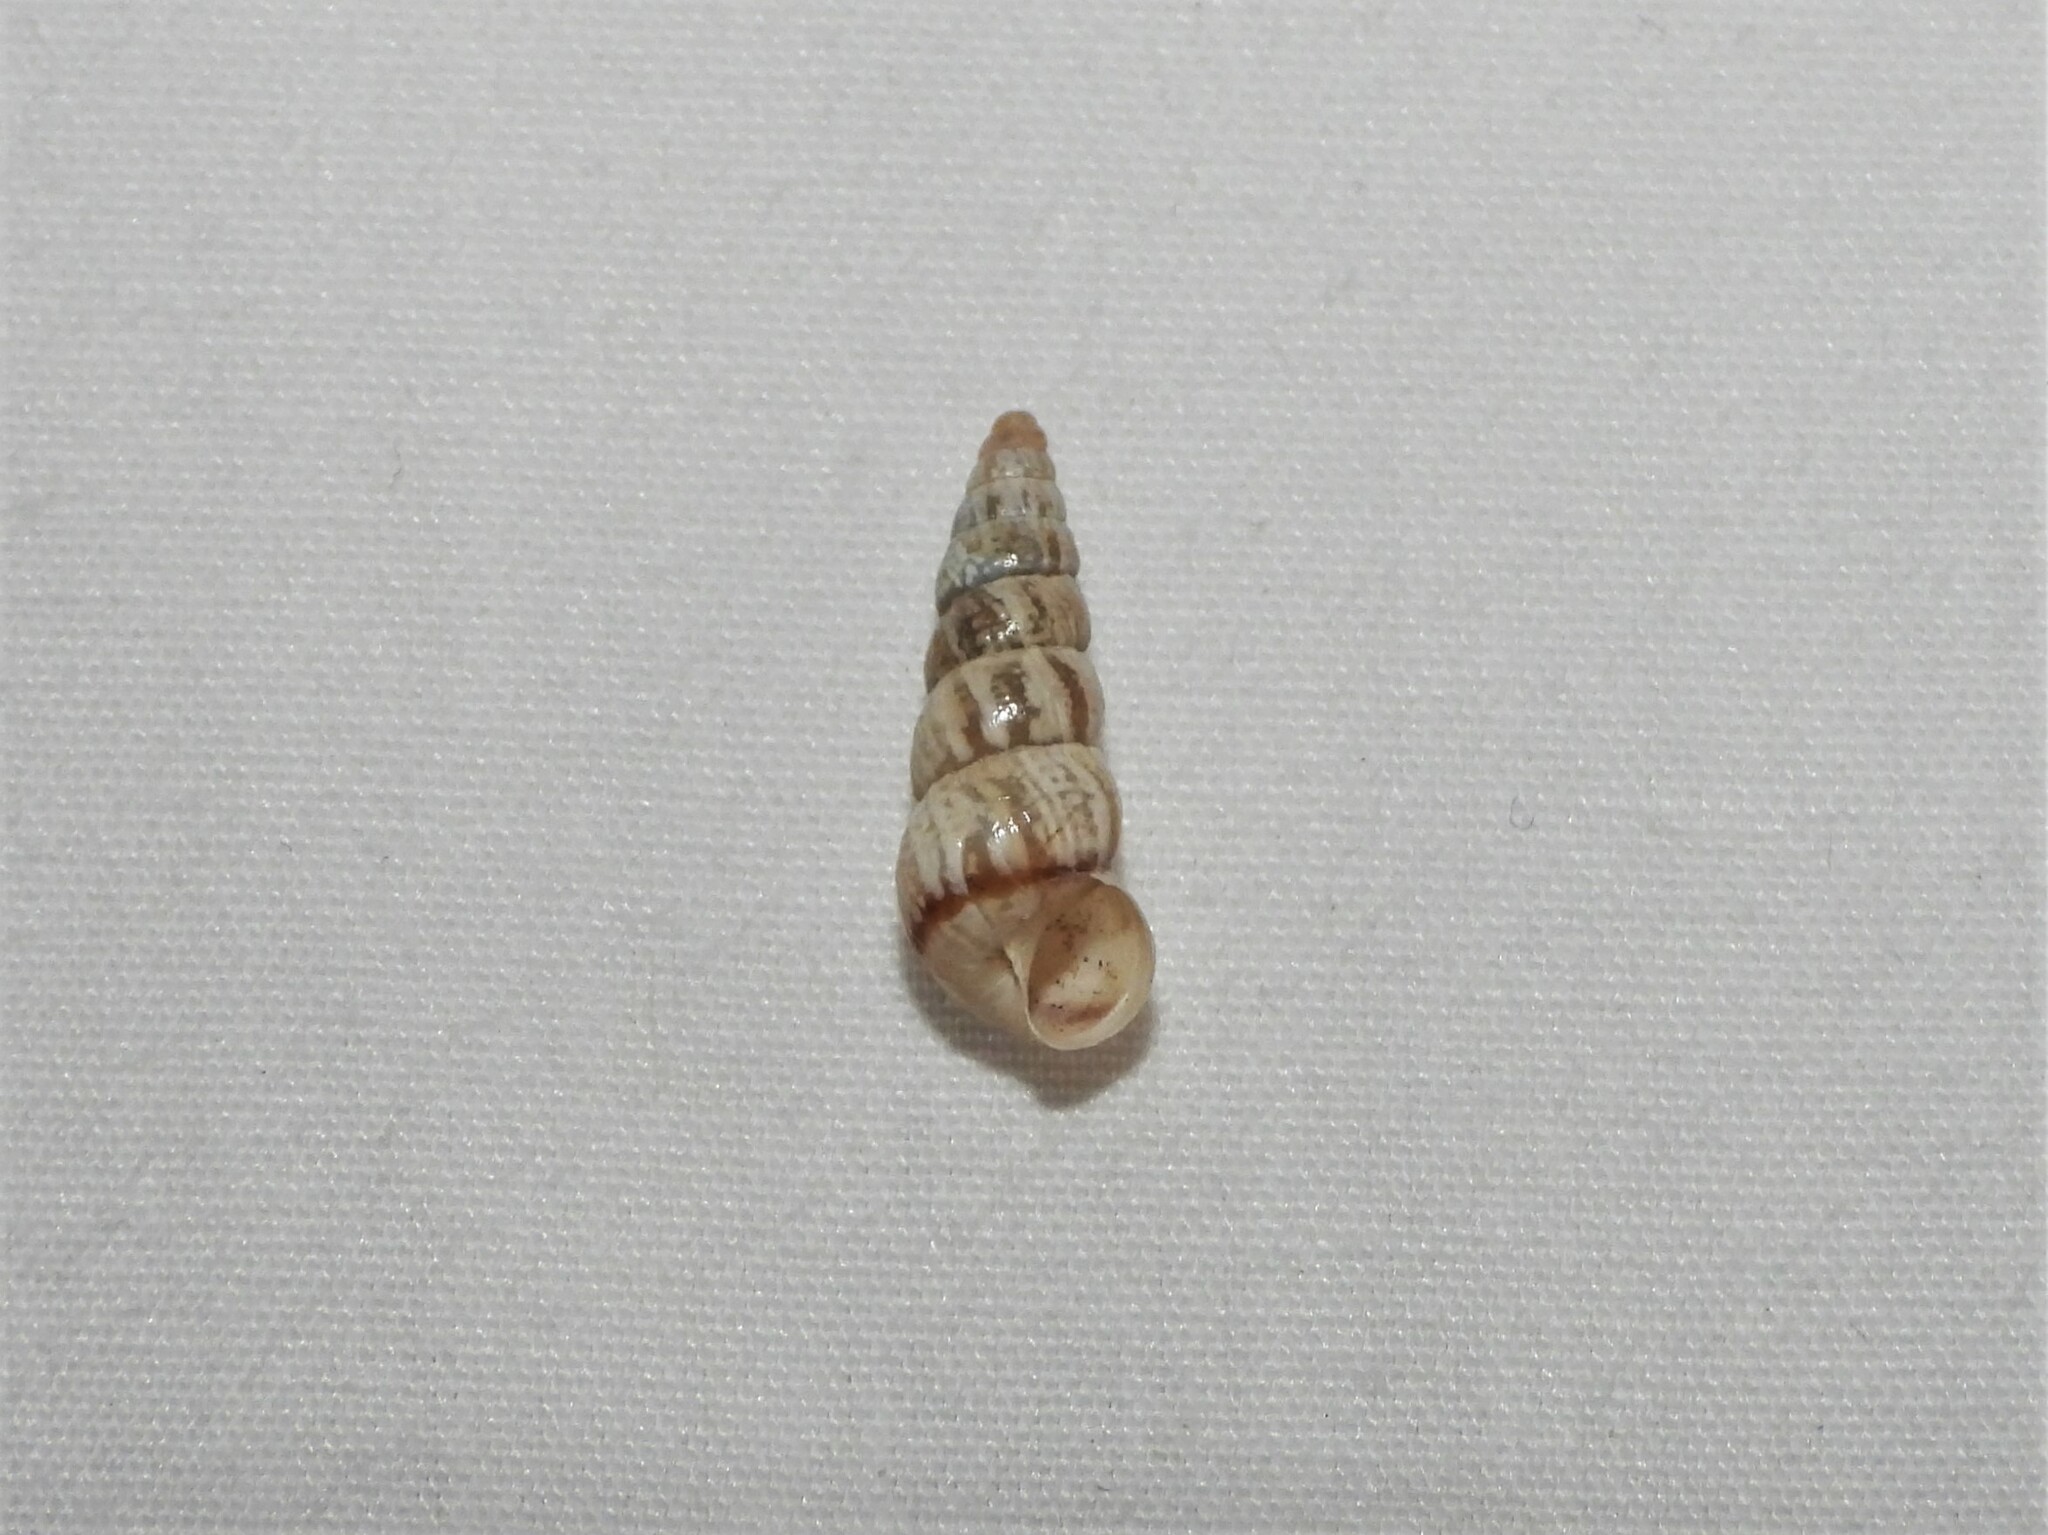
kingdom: Animalia
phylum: Mollusca
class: Gastropoda
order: Stylommatophora
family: Geomitridae
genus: Cochlicella
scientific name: Cochlicella acuta
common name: Pointed snail
